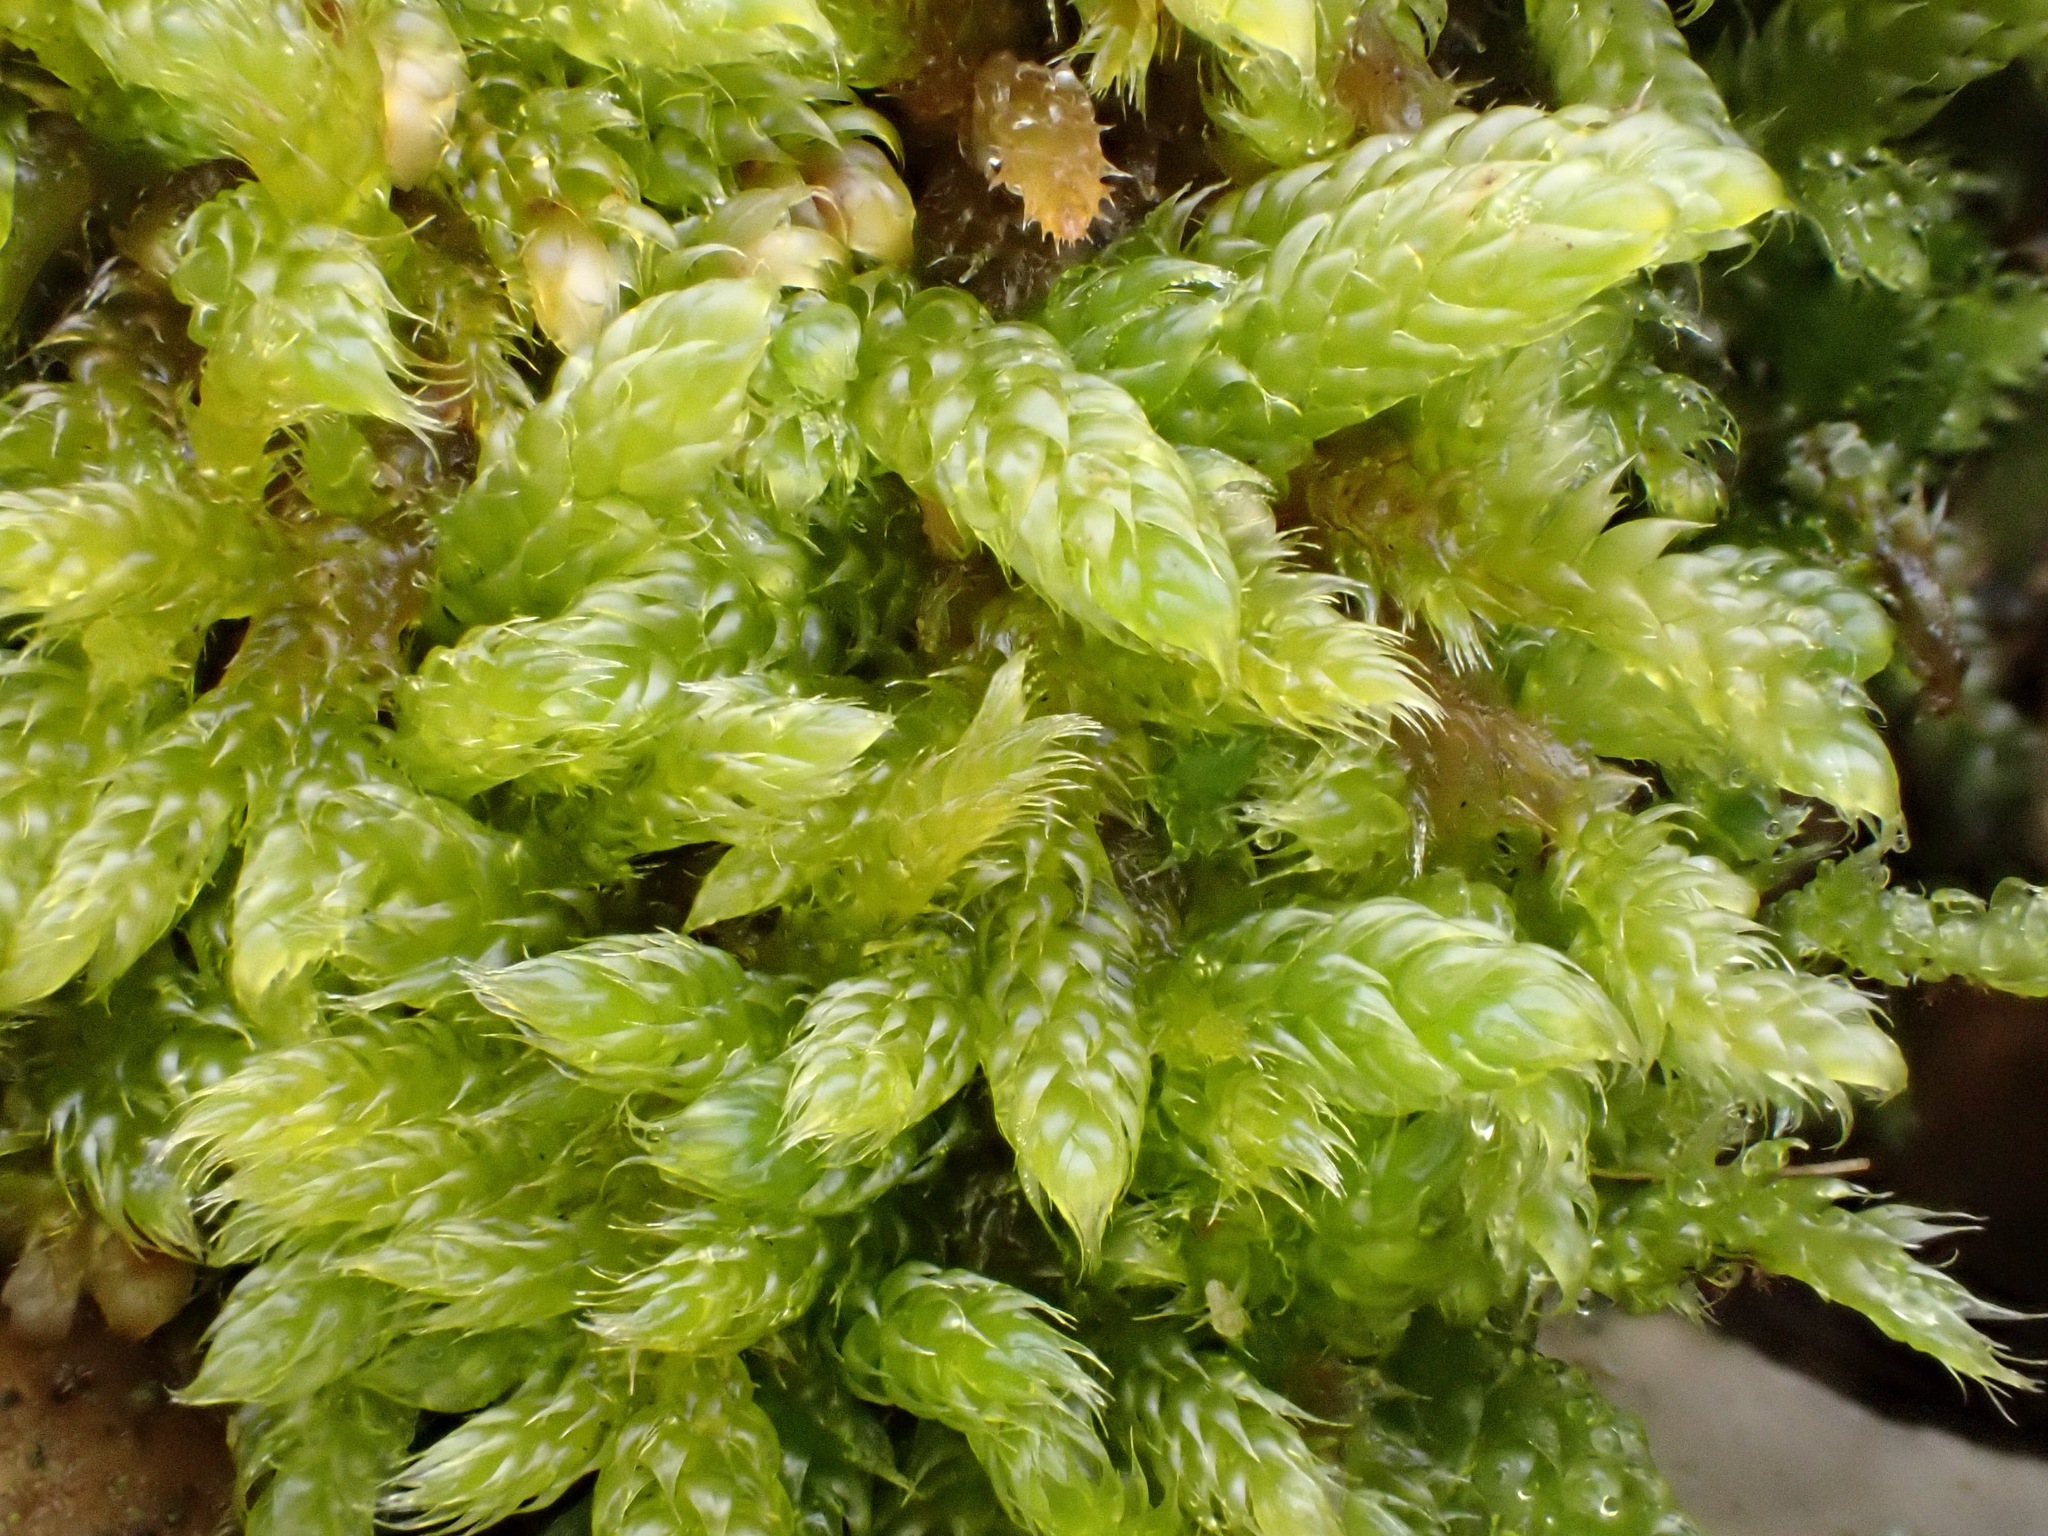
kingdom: Plantae
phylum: Bryophyta
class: Bryopsida
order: Hypnales
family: Hypnaceae
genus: Hypnum
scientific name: Hypnum cupressiforme
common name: Cypress-leaved plait-moss
